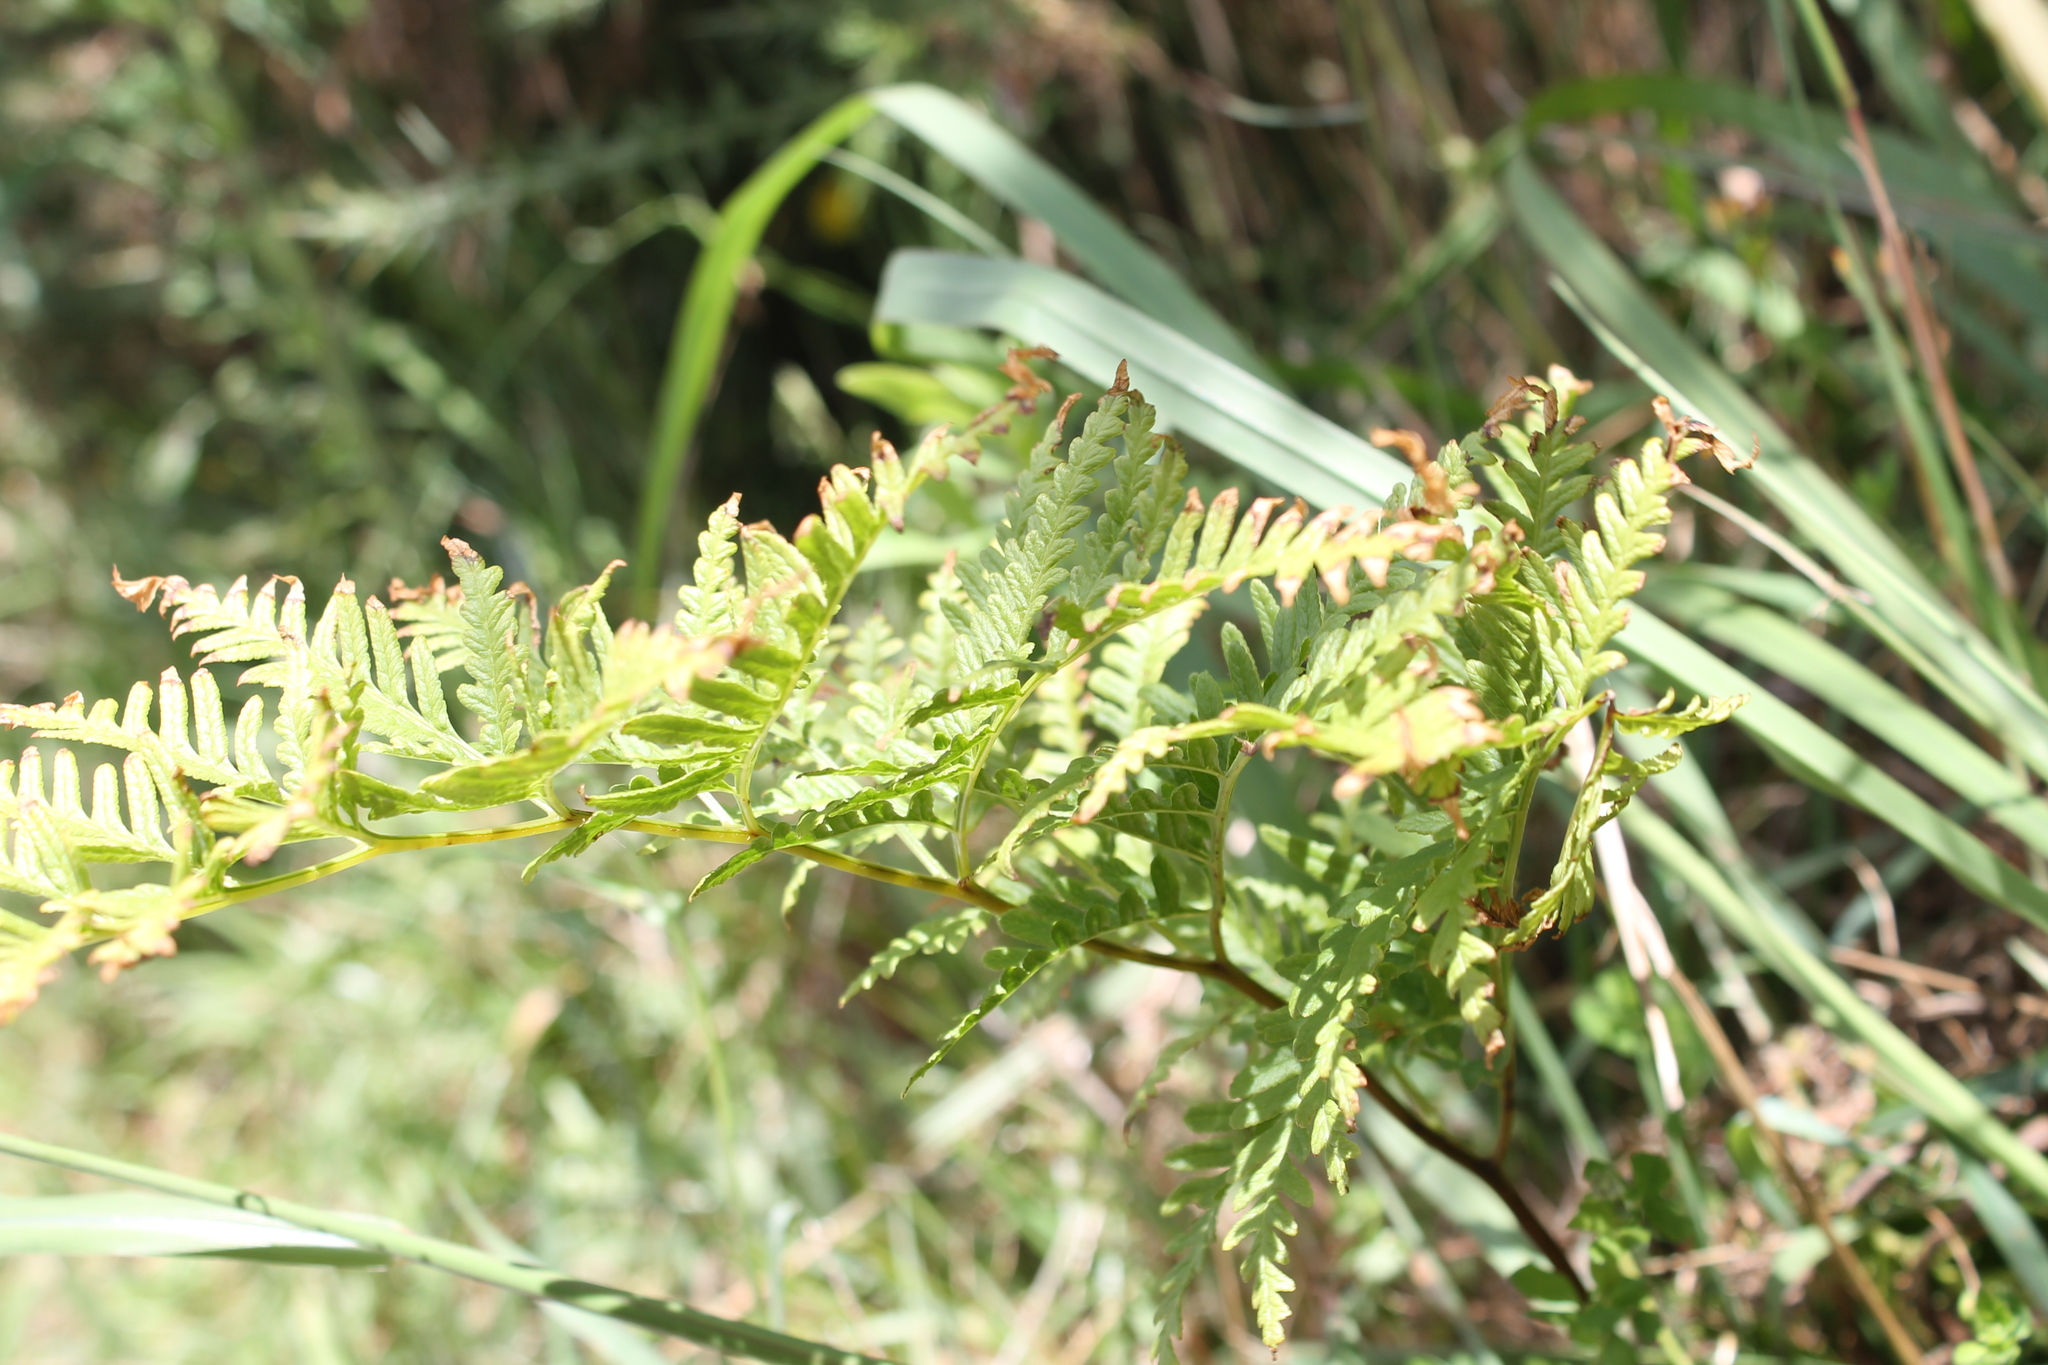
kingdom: Plantae
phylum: Tracheophyta
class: Polypodiopsida
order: Polypodiales
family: Pteridaceae
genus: Pteris
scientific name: Pteris tremula
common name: Australian brake
